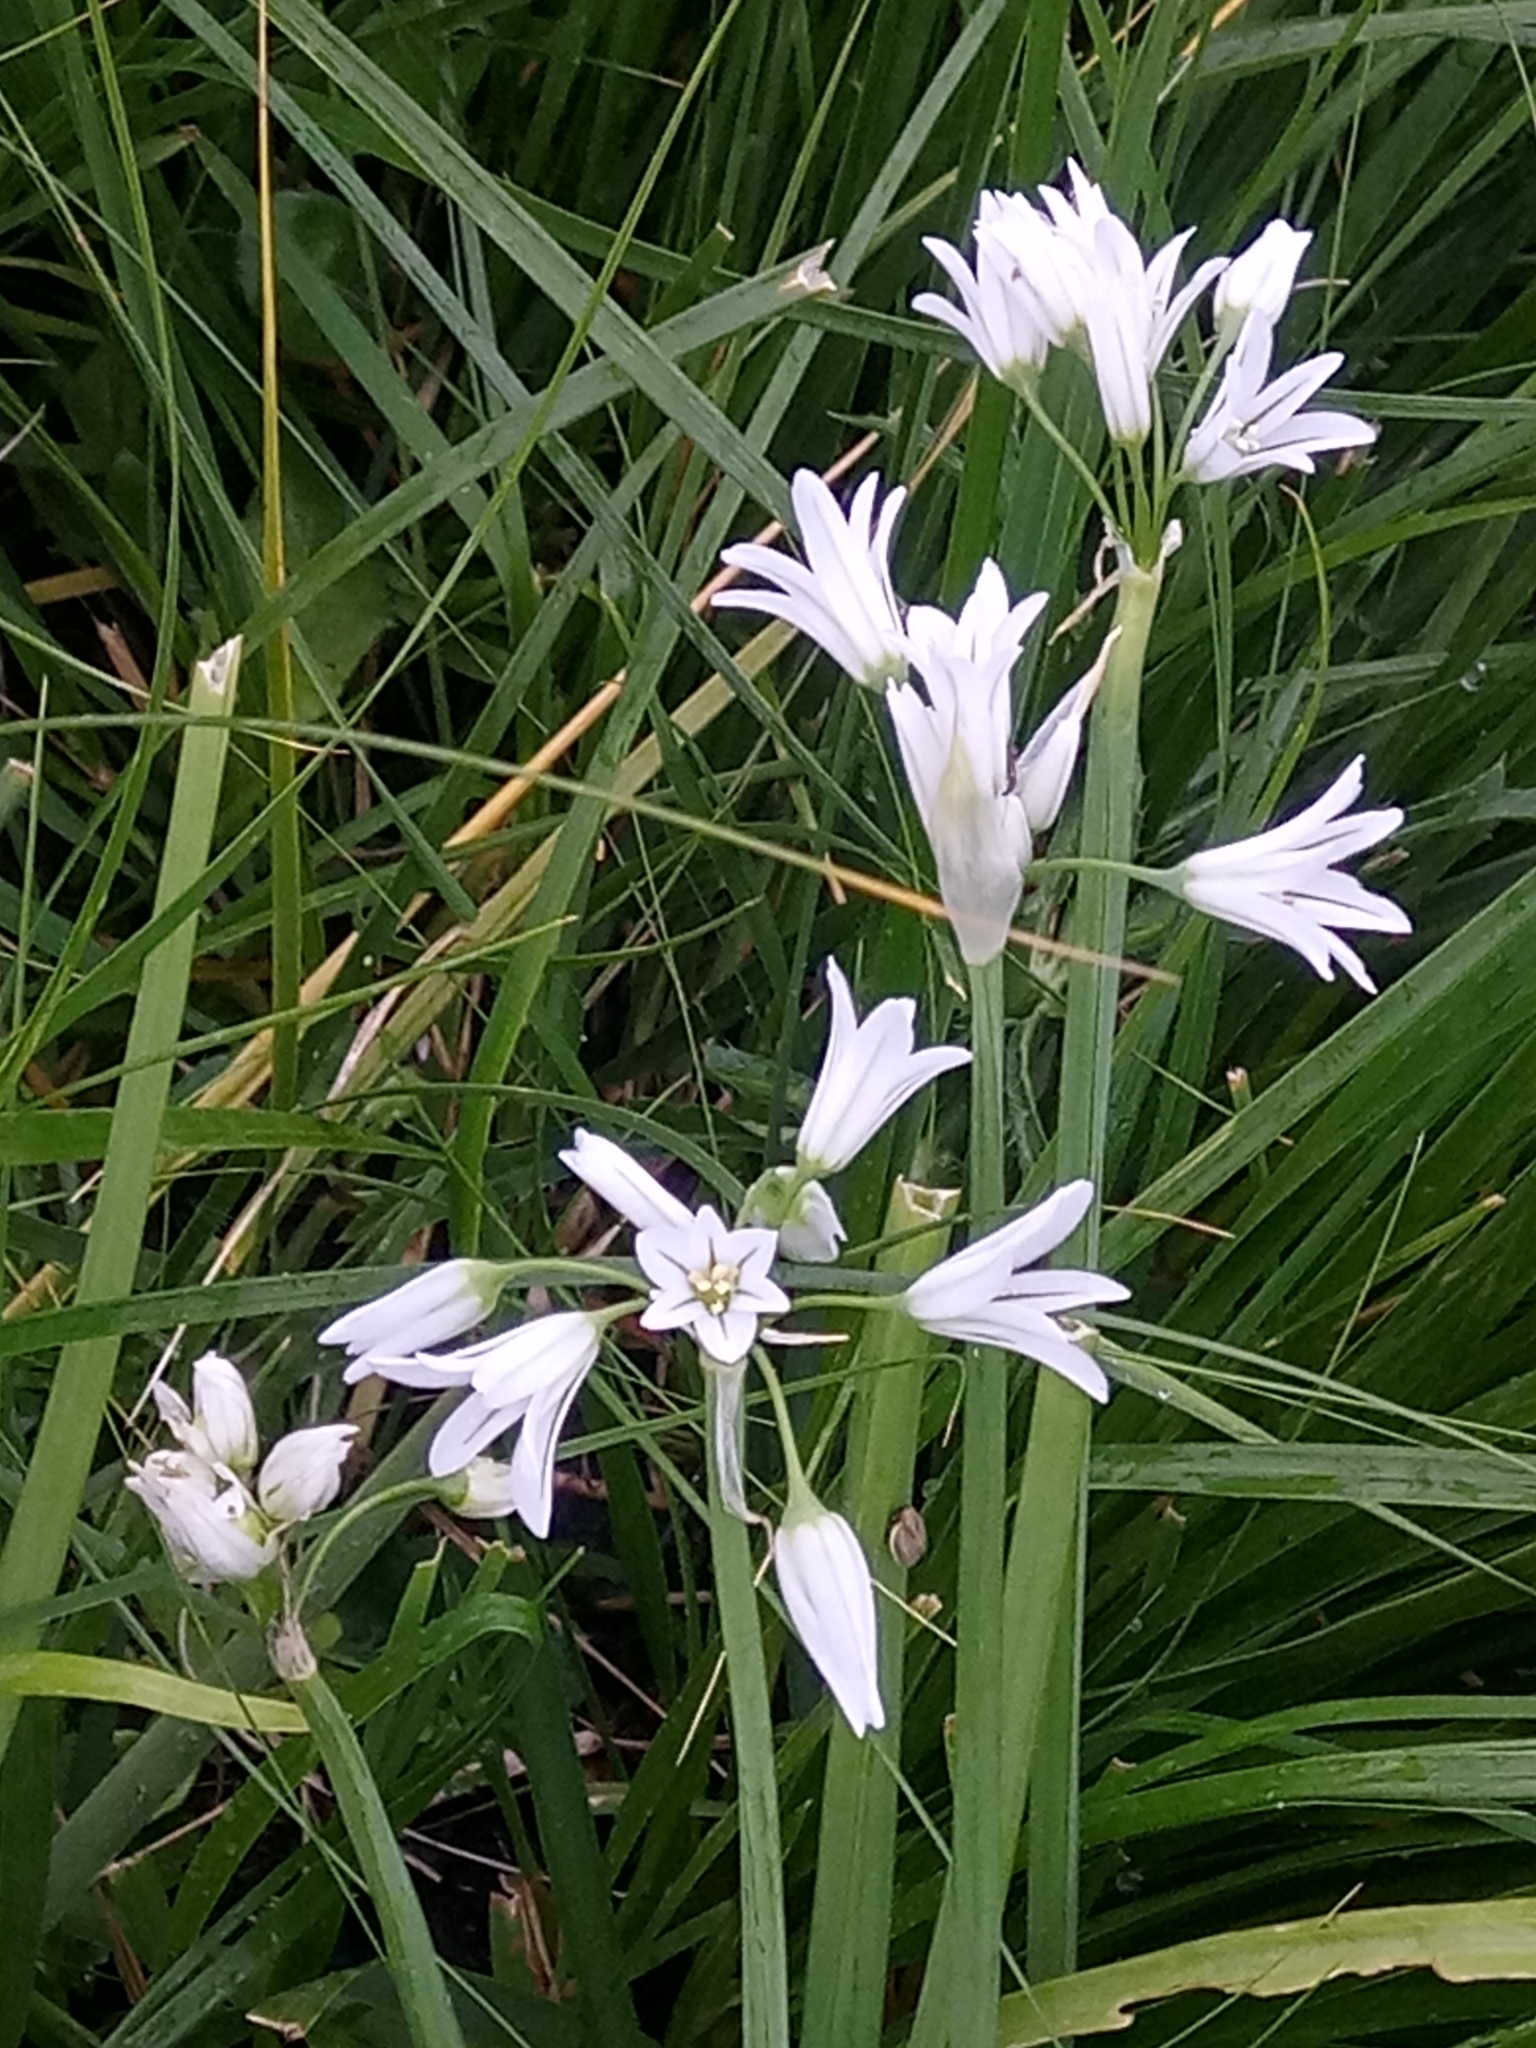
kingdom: Plantae
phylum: Tracheophyta
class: Liliopsida
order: Asparagales
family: Amaryllidaceae
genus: Allium
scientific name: Allium triquetrum
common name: Three-cornered garlic
